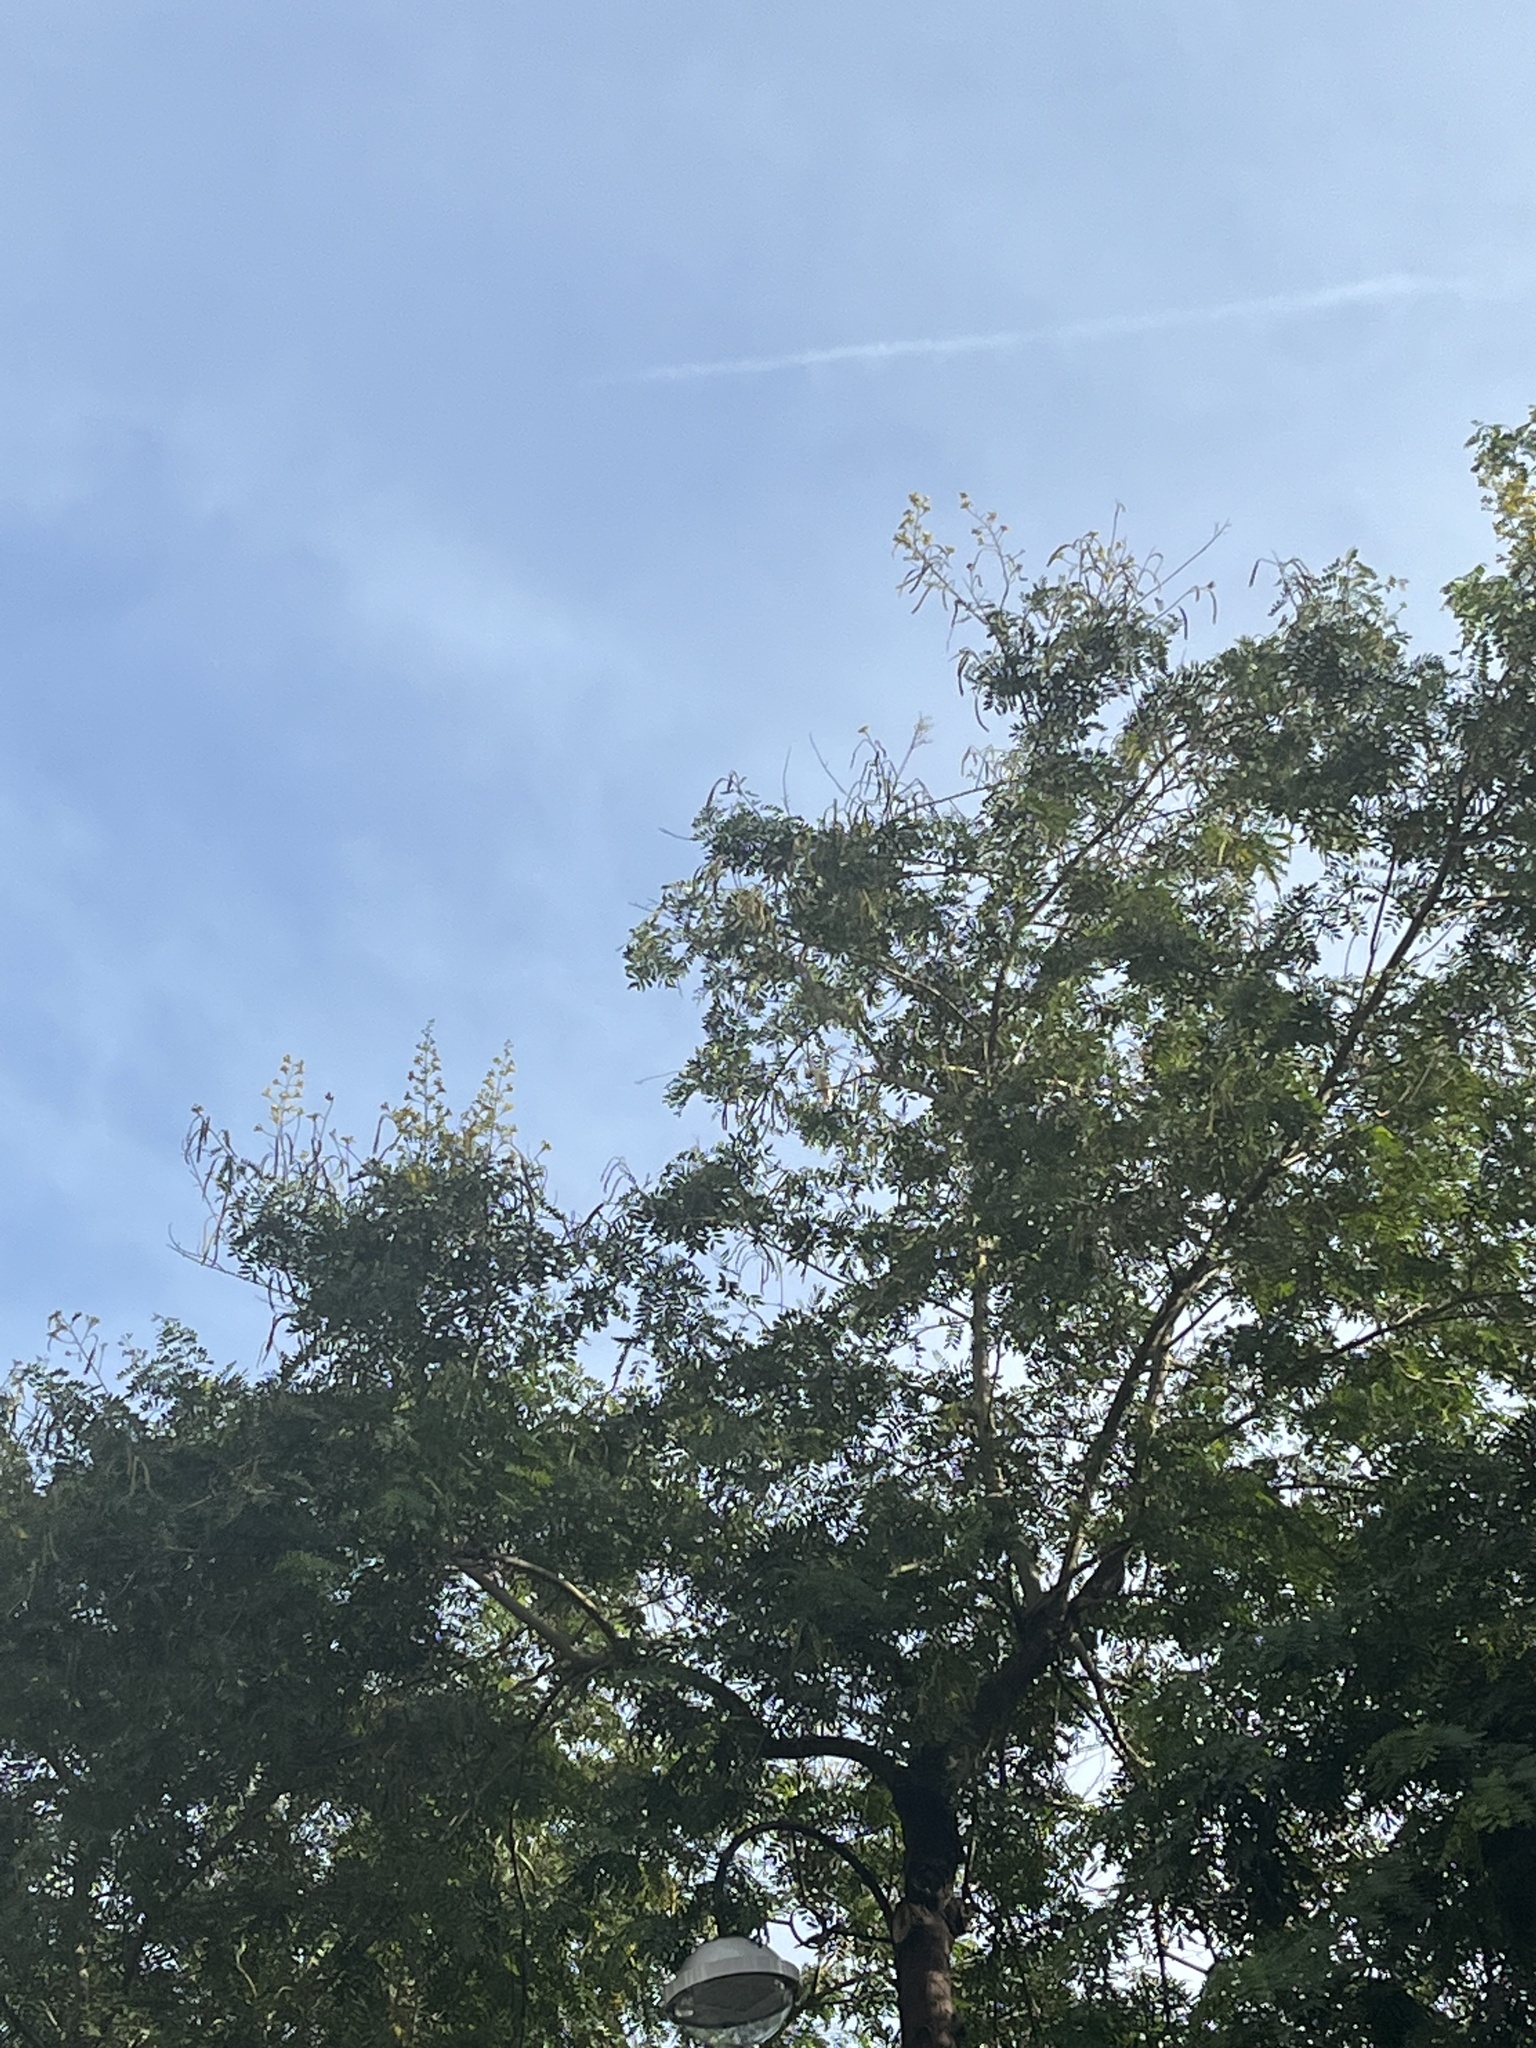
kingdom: Animalia
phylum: Chordata
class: Aves
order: Psittaciformes
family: Psittacidae
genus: Cacatua
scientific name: Cacatua sulphurea
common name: Yellow-crested cockatoo
